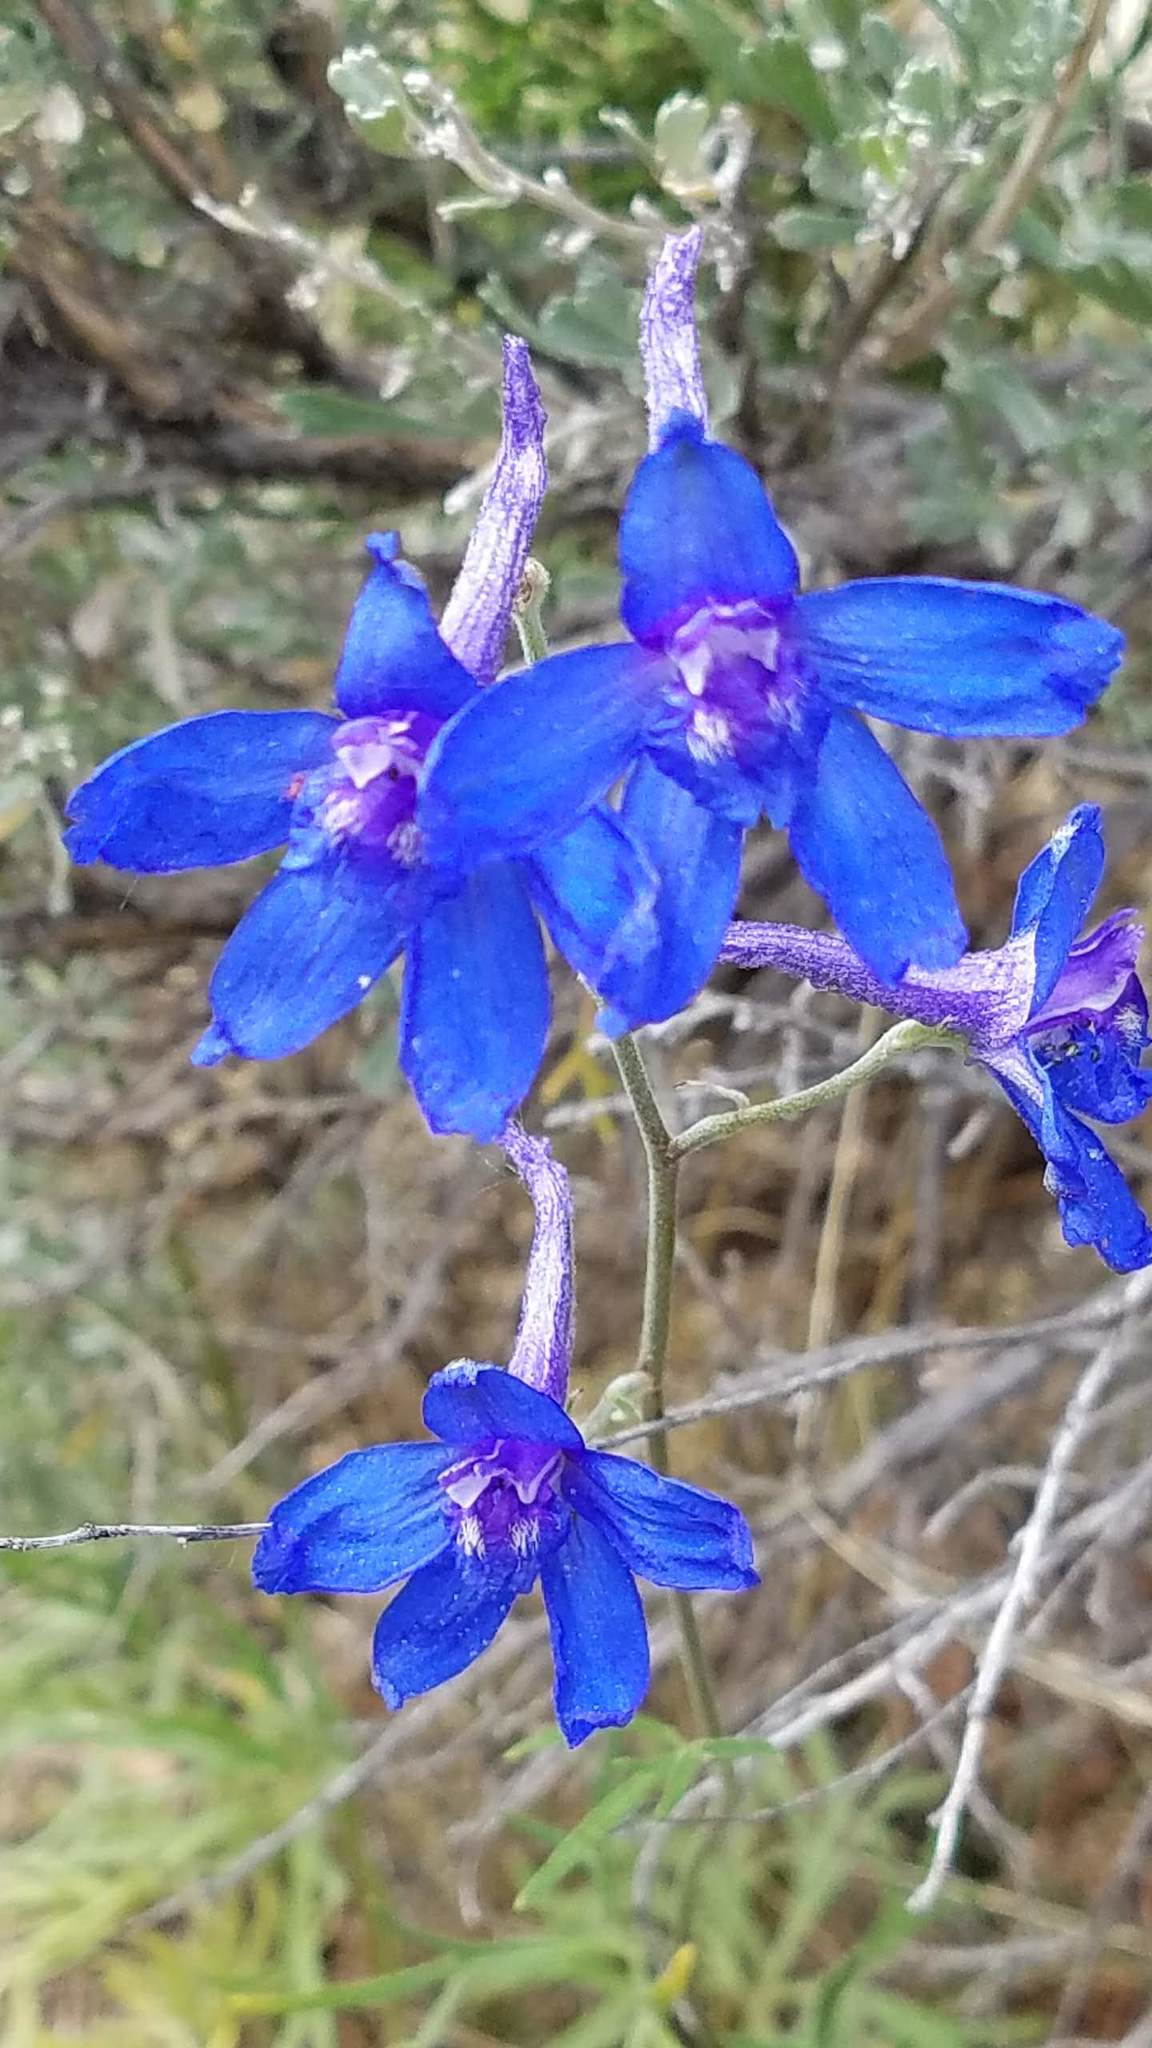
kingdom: Plantae
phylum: Tracheophyta
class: Magnoliopsida
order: Ranunculales
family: Ranunculaceae
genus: Delphinium
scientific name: Delphinium nuttallianum
